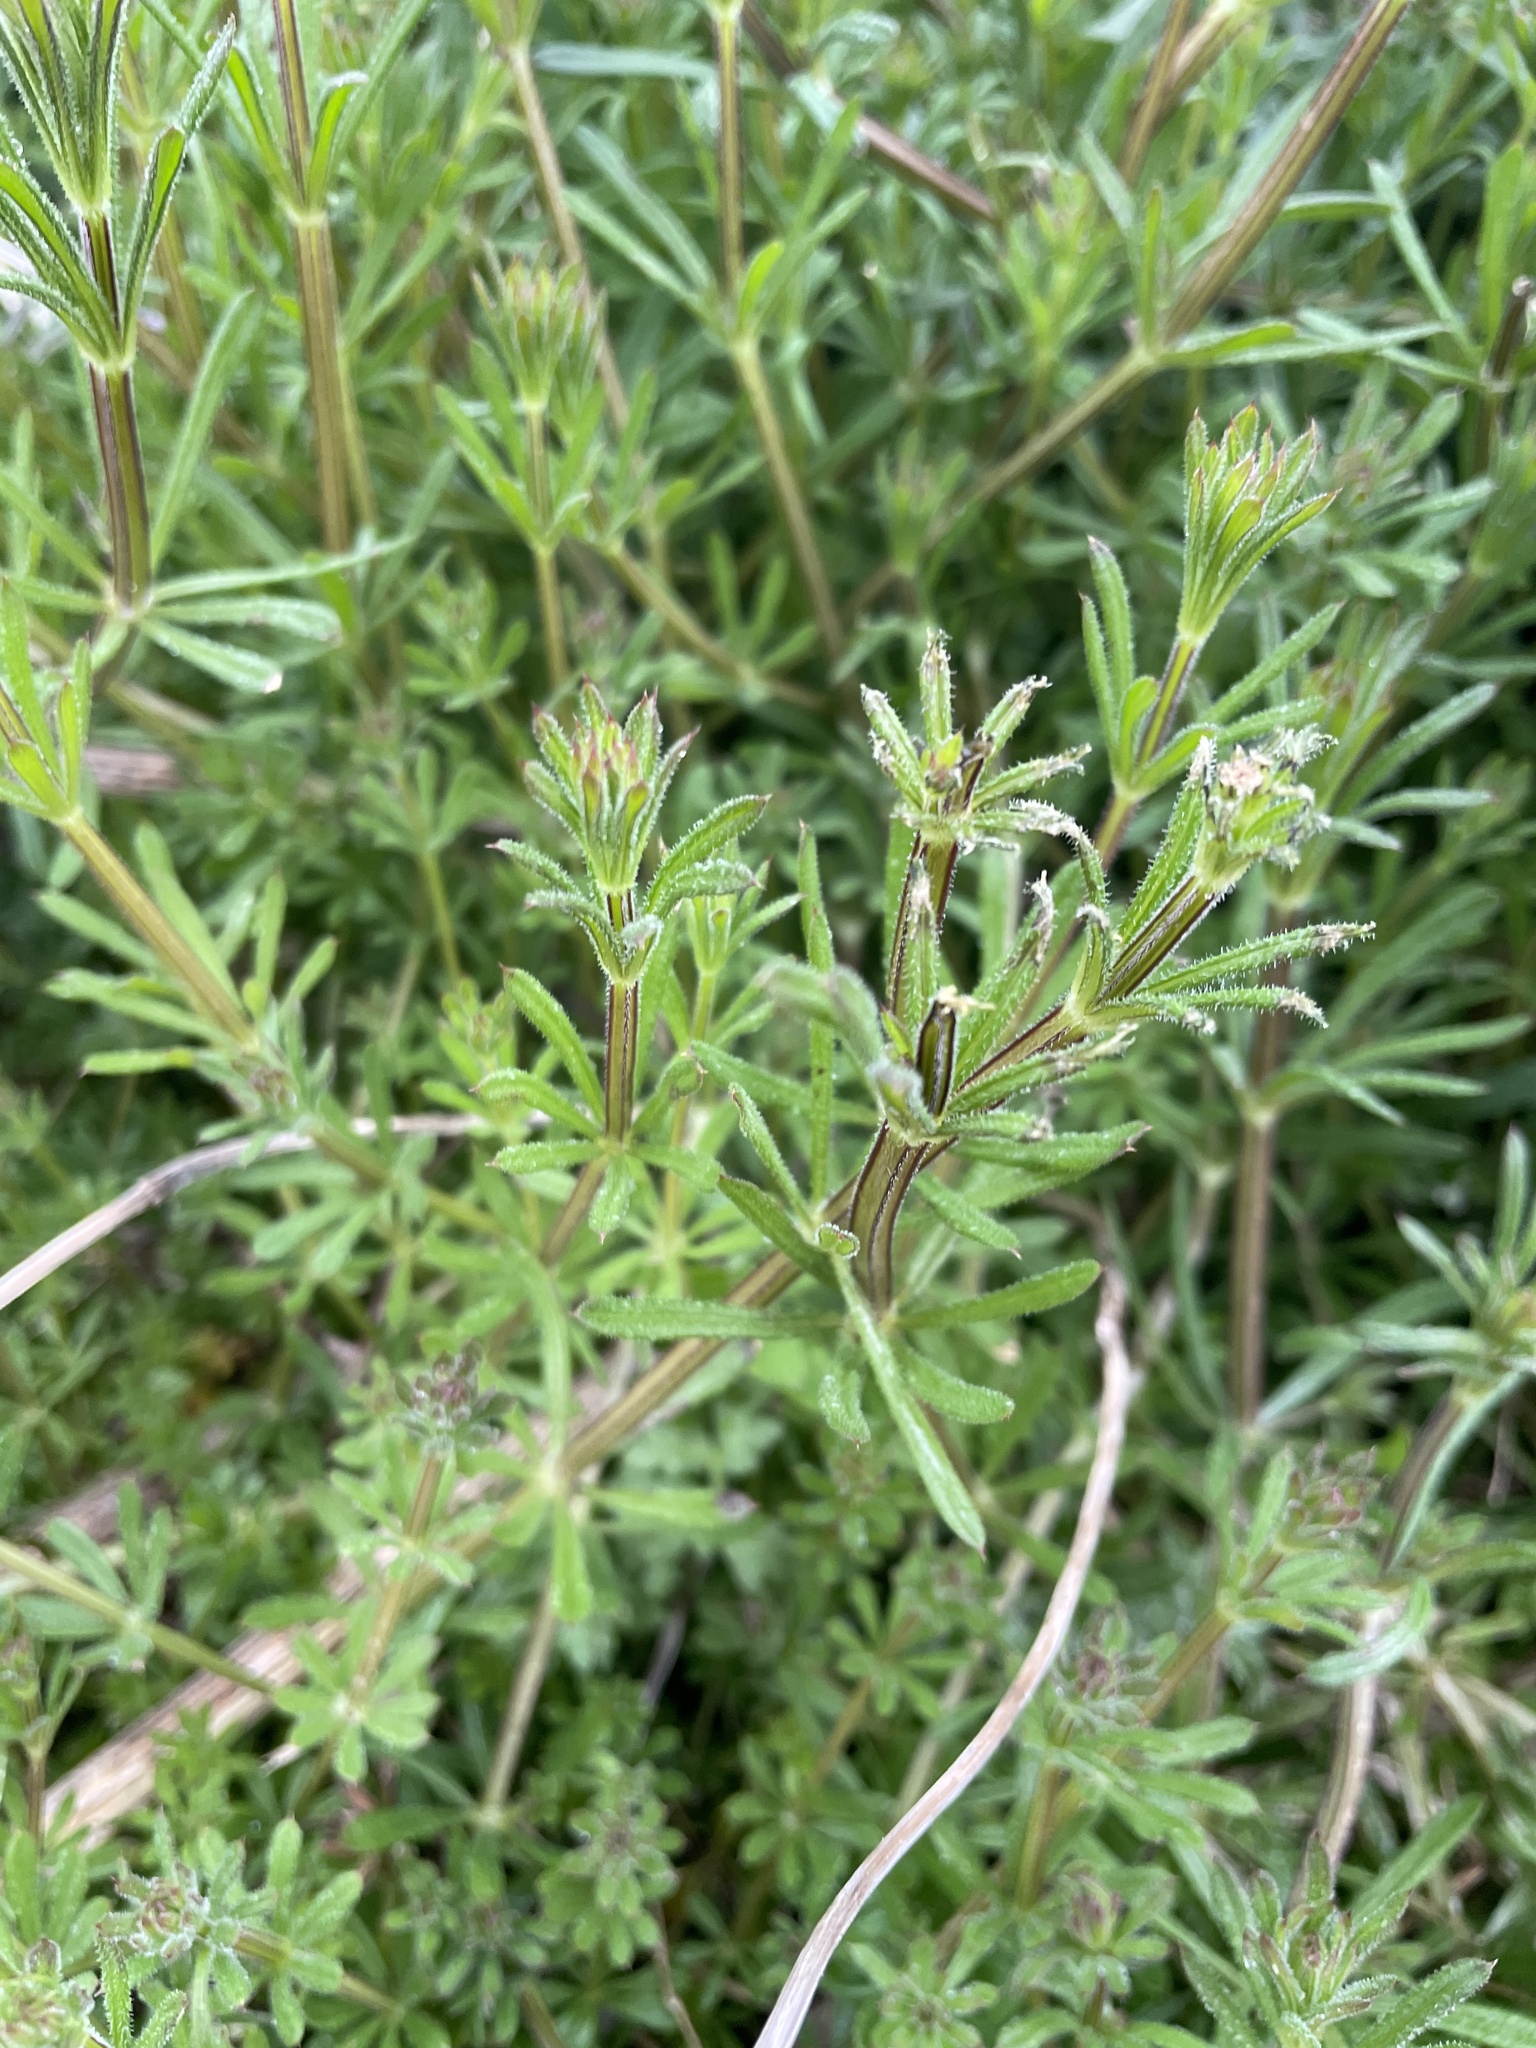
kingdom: Plantae
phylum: Tracheophyta
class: Magnoliopsida
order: Gentianales
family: Rubiaceae
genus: Galium
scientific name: Galium aparine
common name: Cleavers
